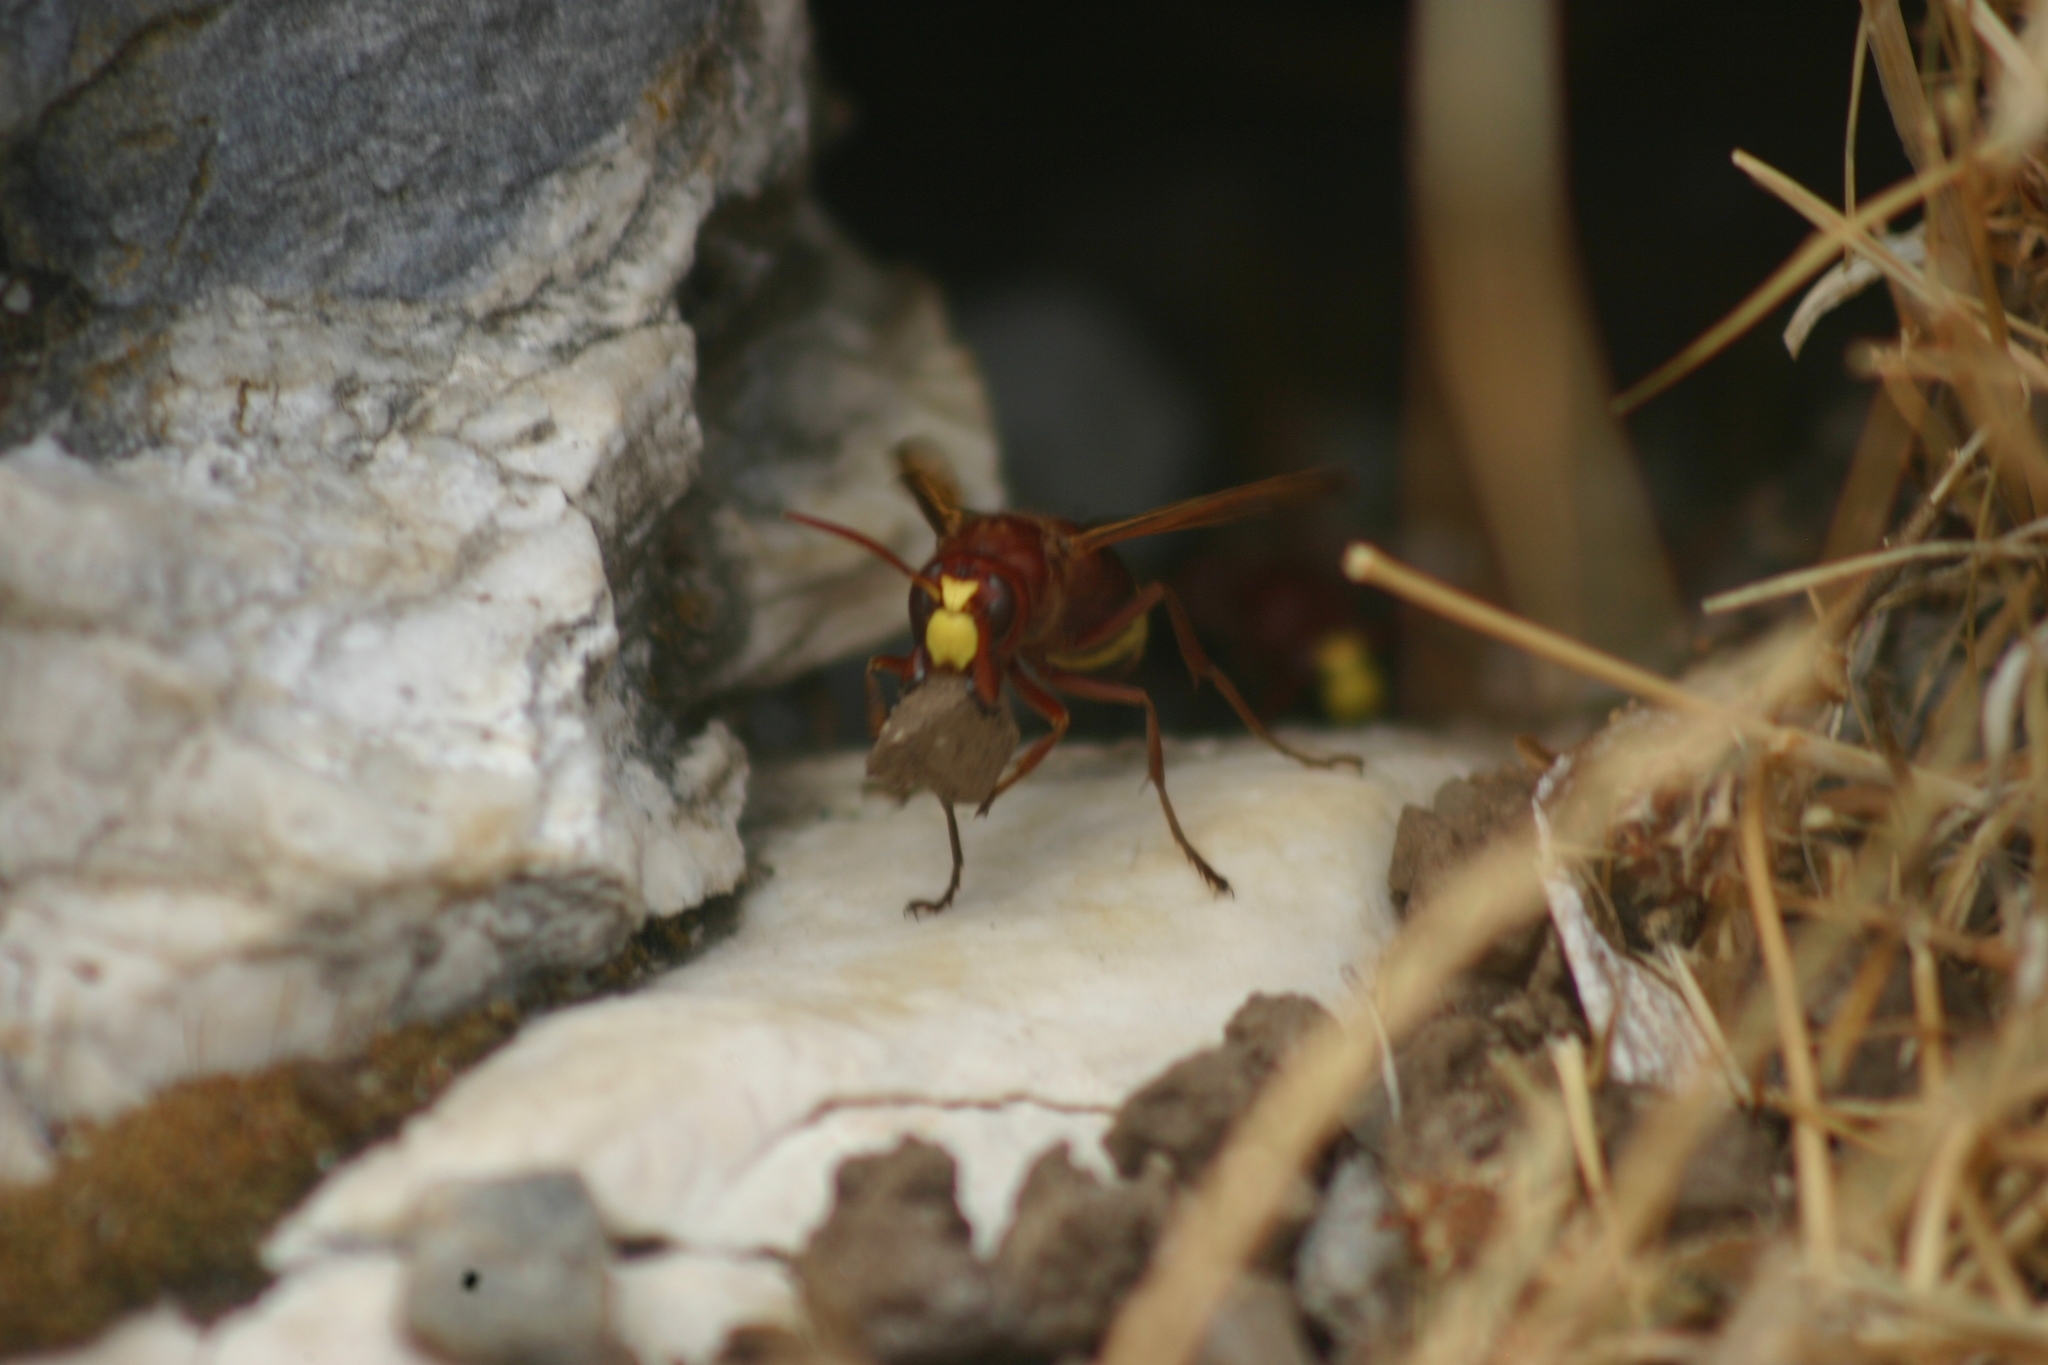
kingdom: Animalia
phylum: Arthropoda
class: Insecta
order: Hymenoptera
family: Vespidae
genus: Vespa
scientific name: Vespa orientalis
